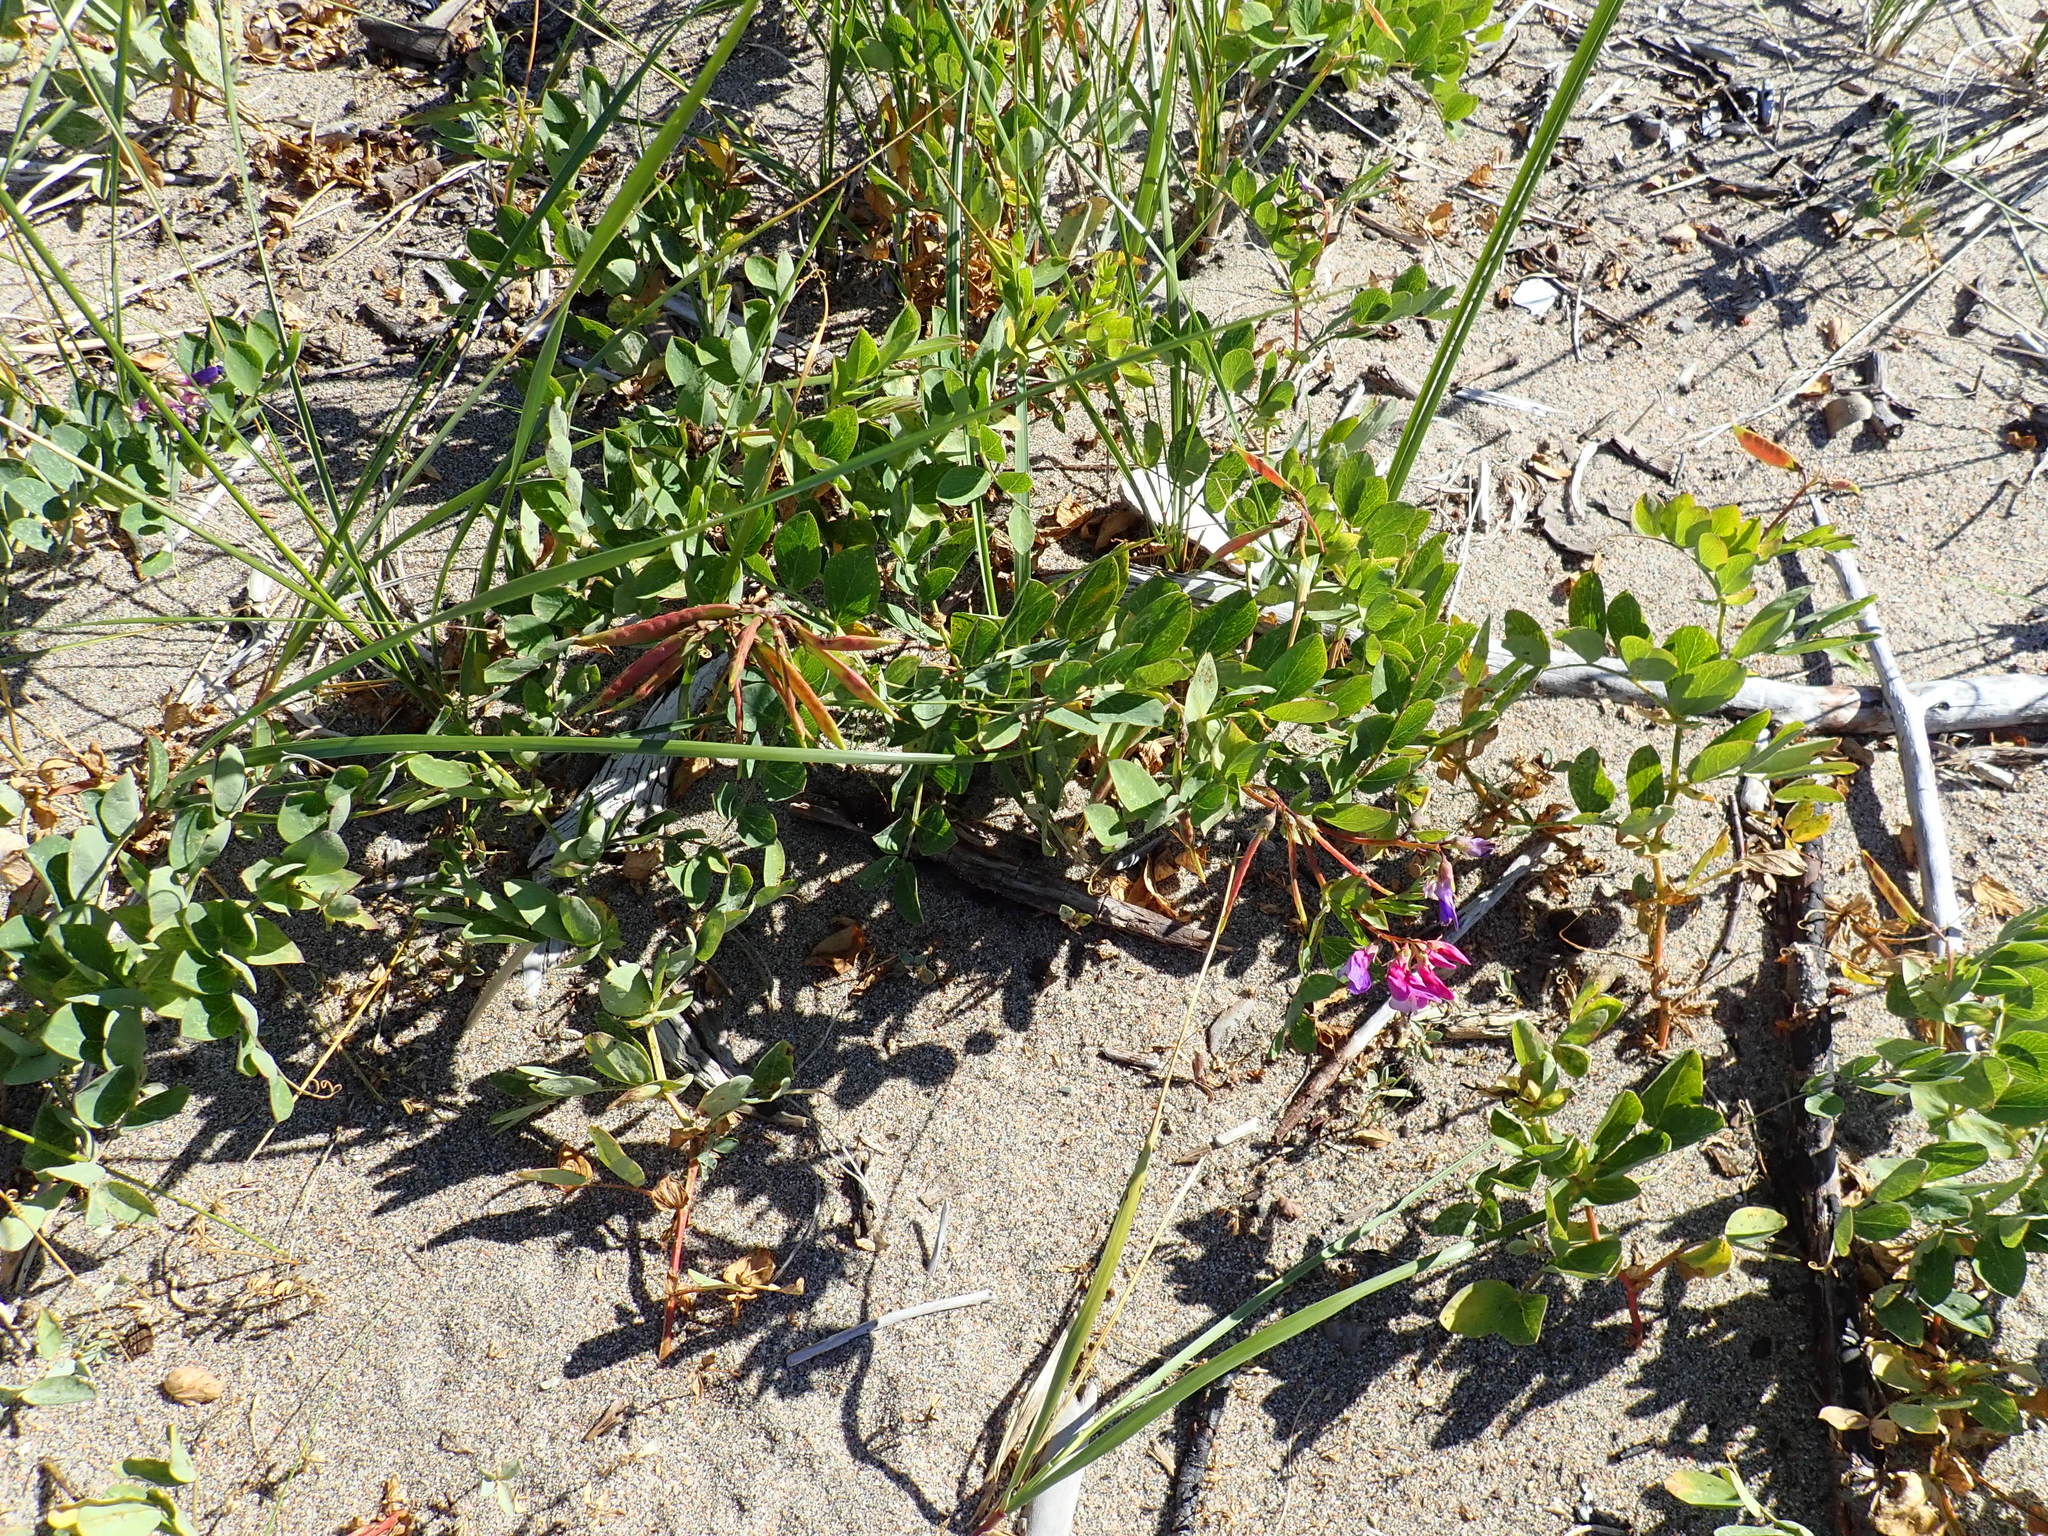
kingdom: Plantae
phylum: Tracheophyta
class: Magnoliopsida
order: Fabales
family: Fabaceae
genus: Lathyrus
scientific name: Lathyrus japonicus
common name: Sea pea
